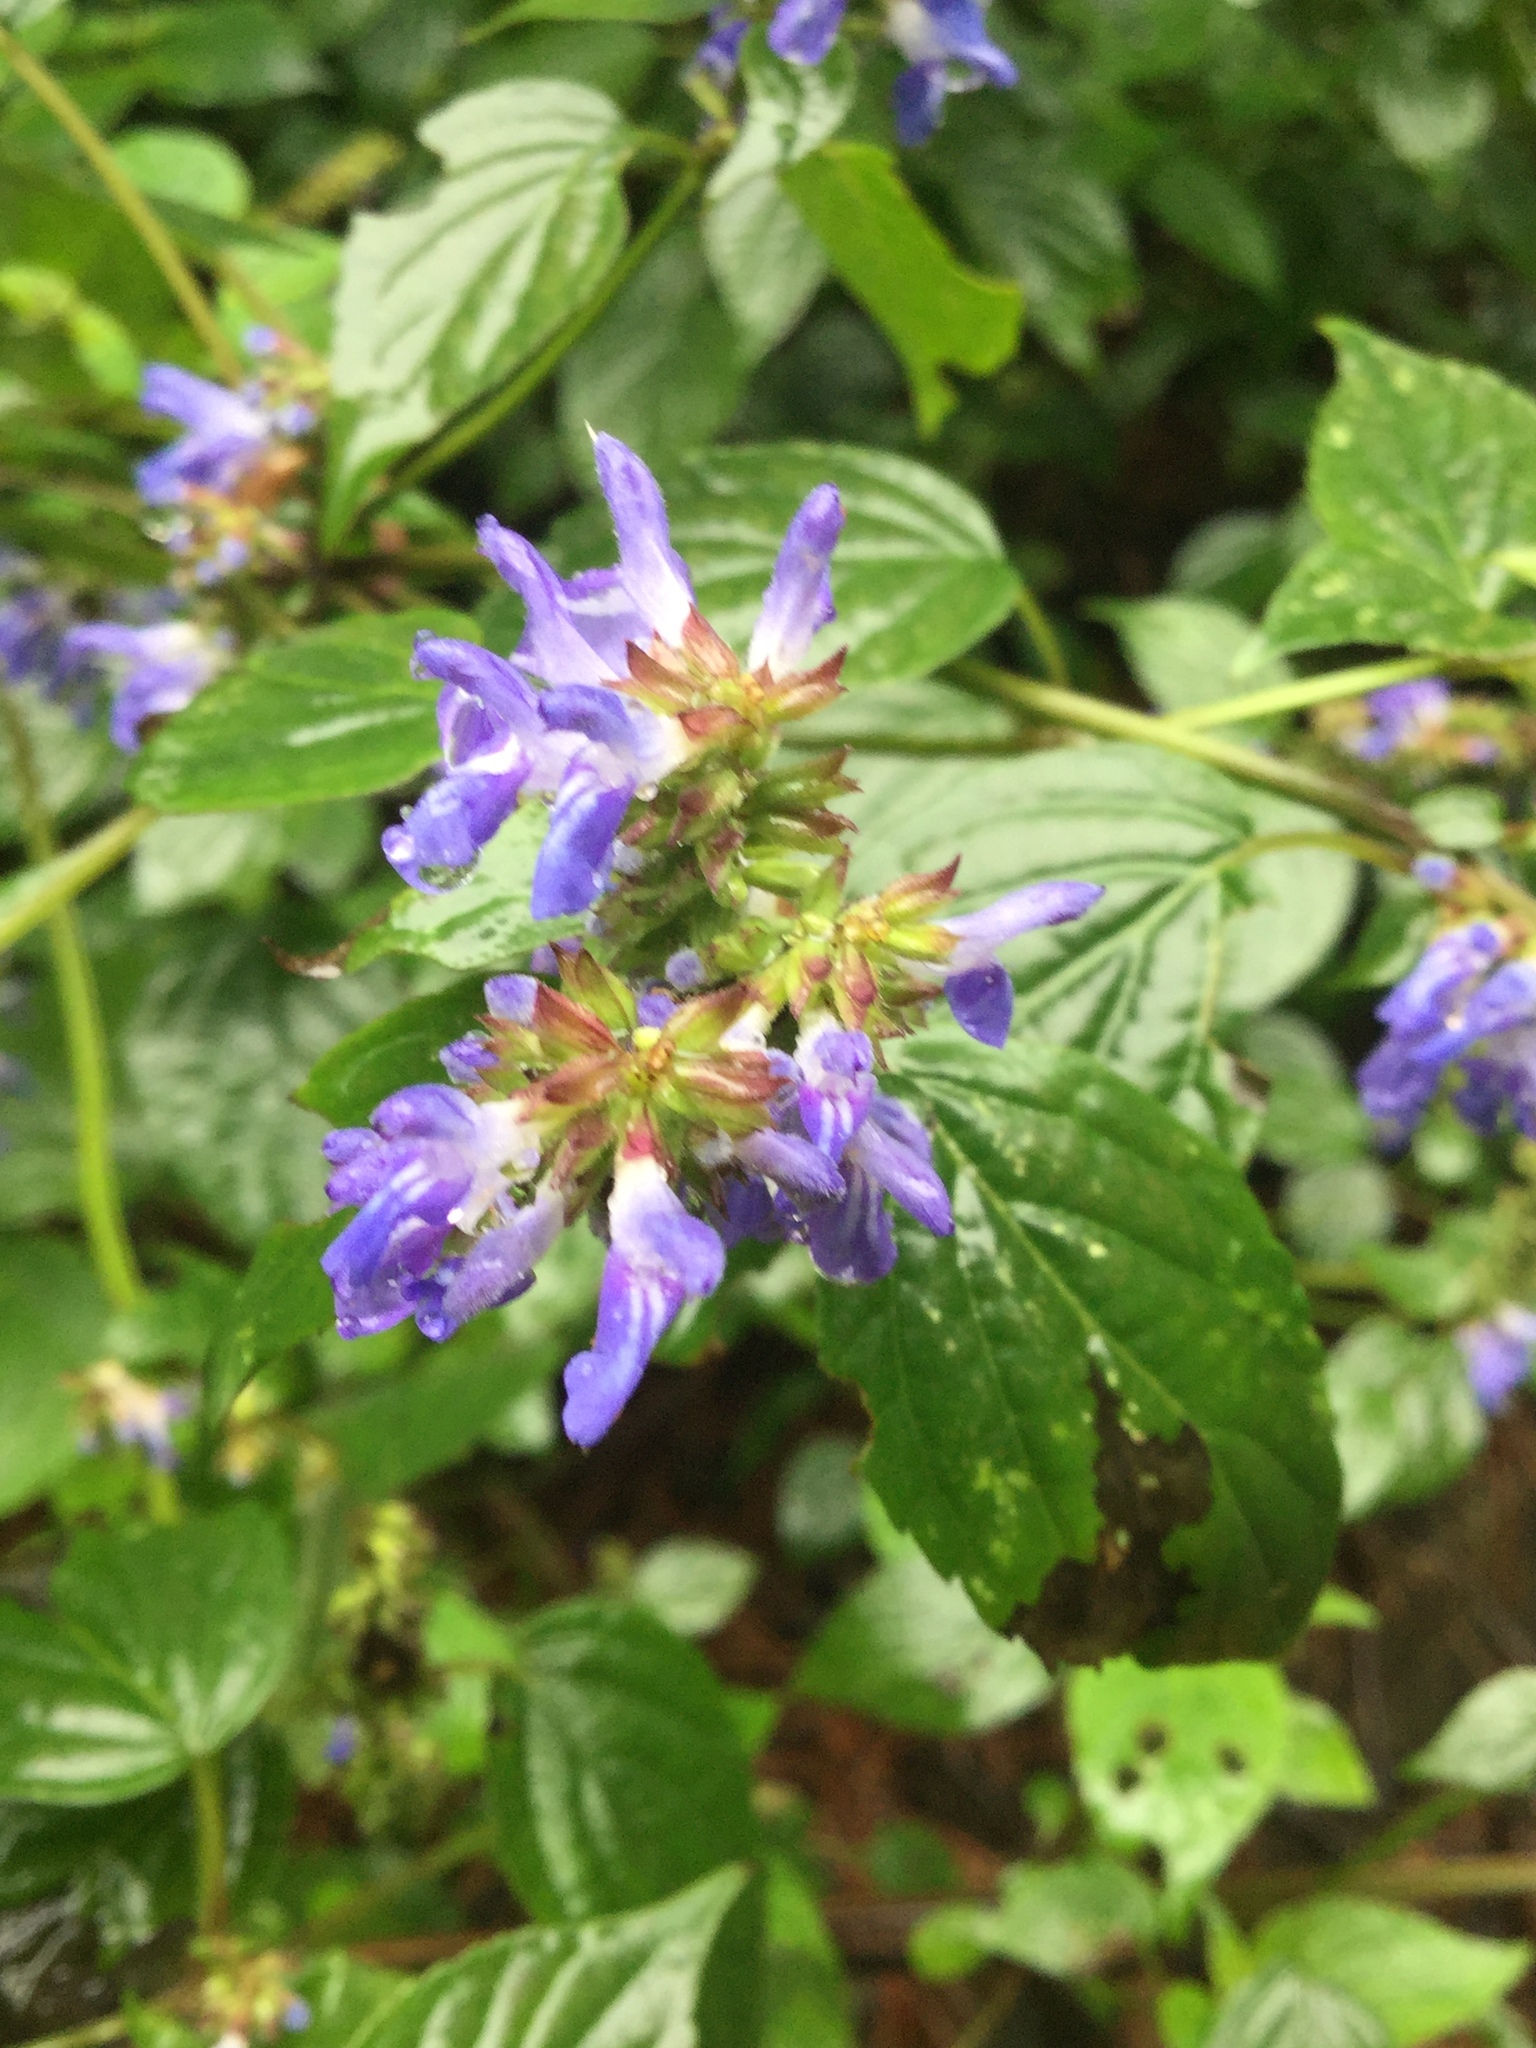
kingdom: Plantae
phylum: Tracheophyta
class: Magnoliopsida
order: Lamiales
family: Lamiaceae
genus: Salvia
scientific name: Salvia polystachia
